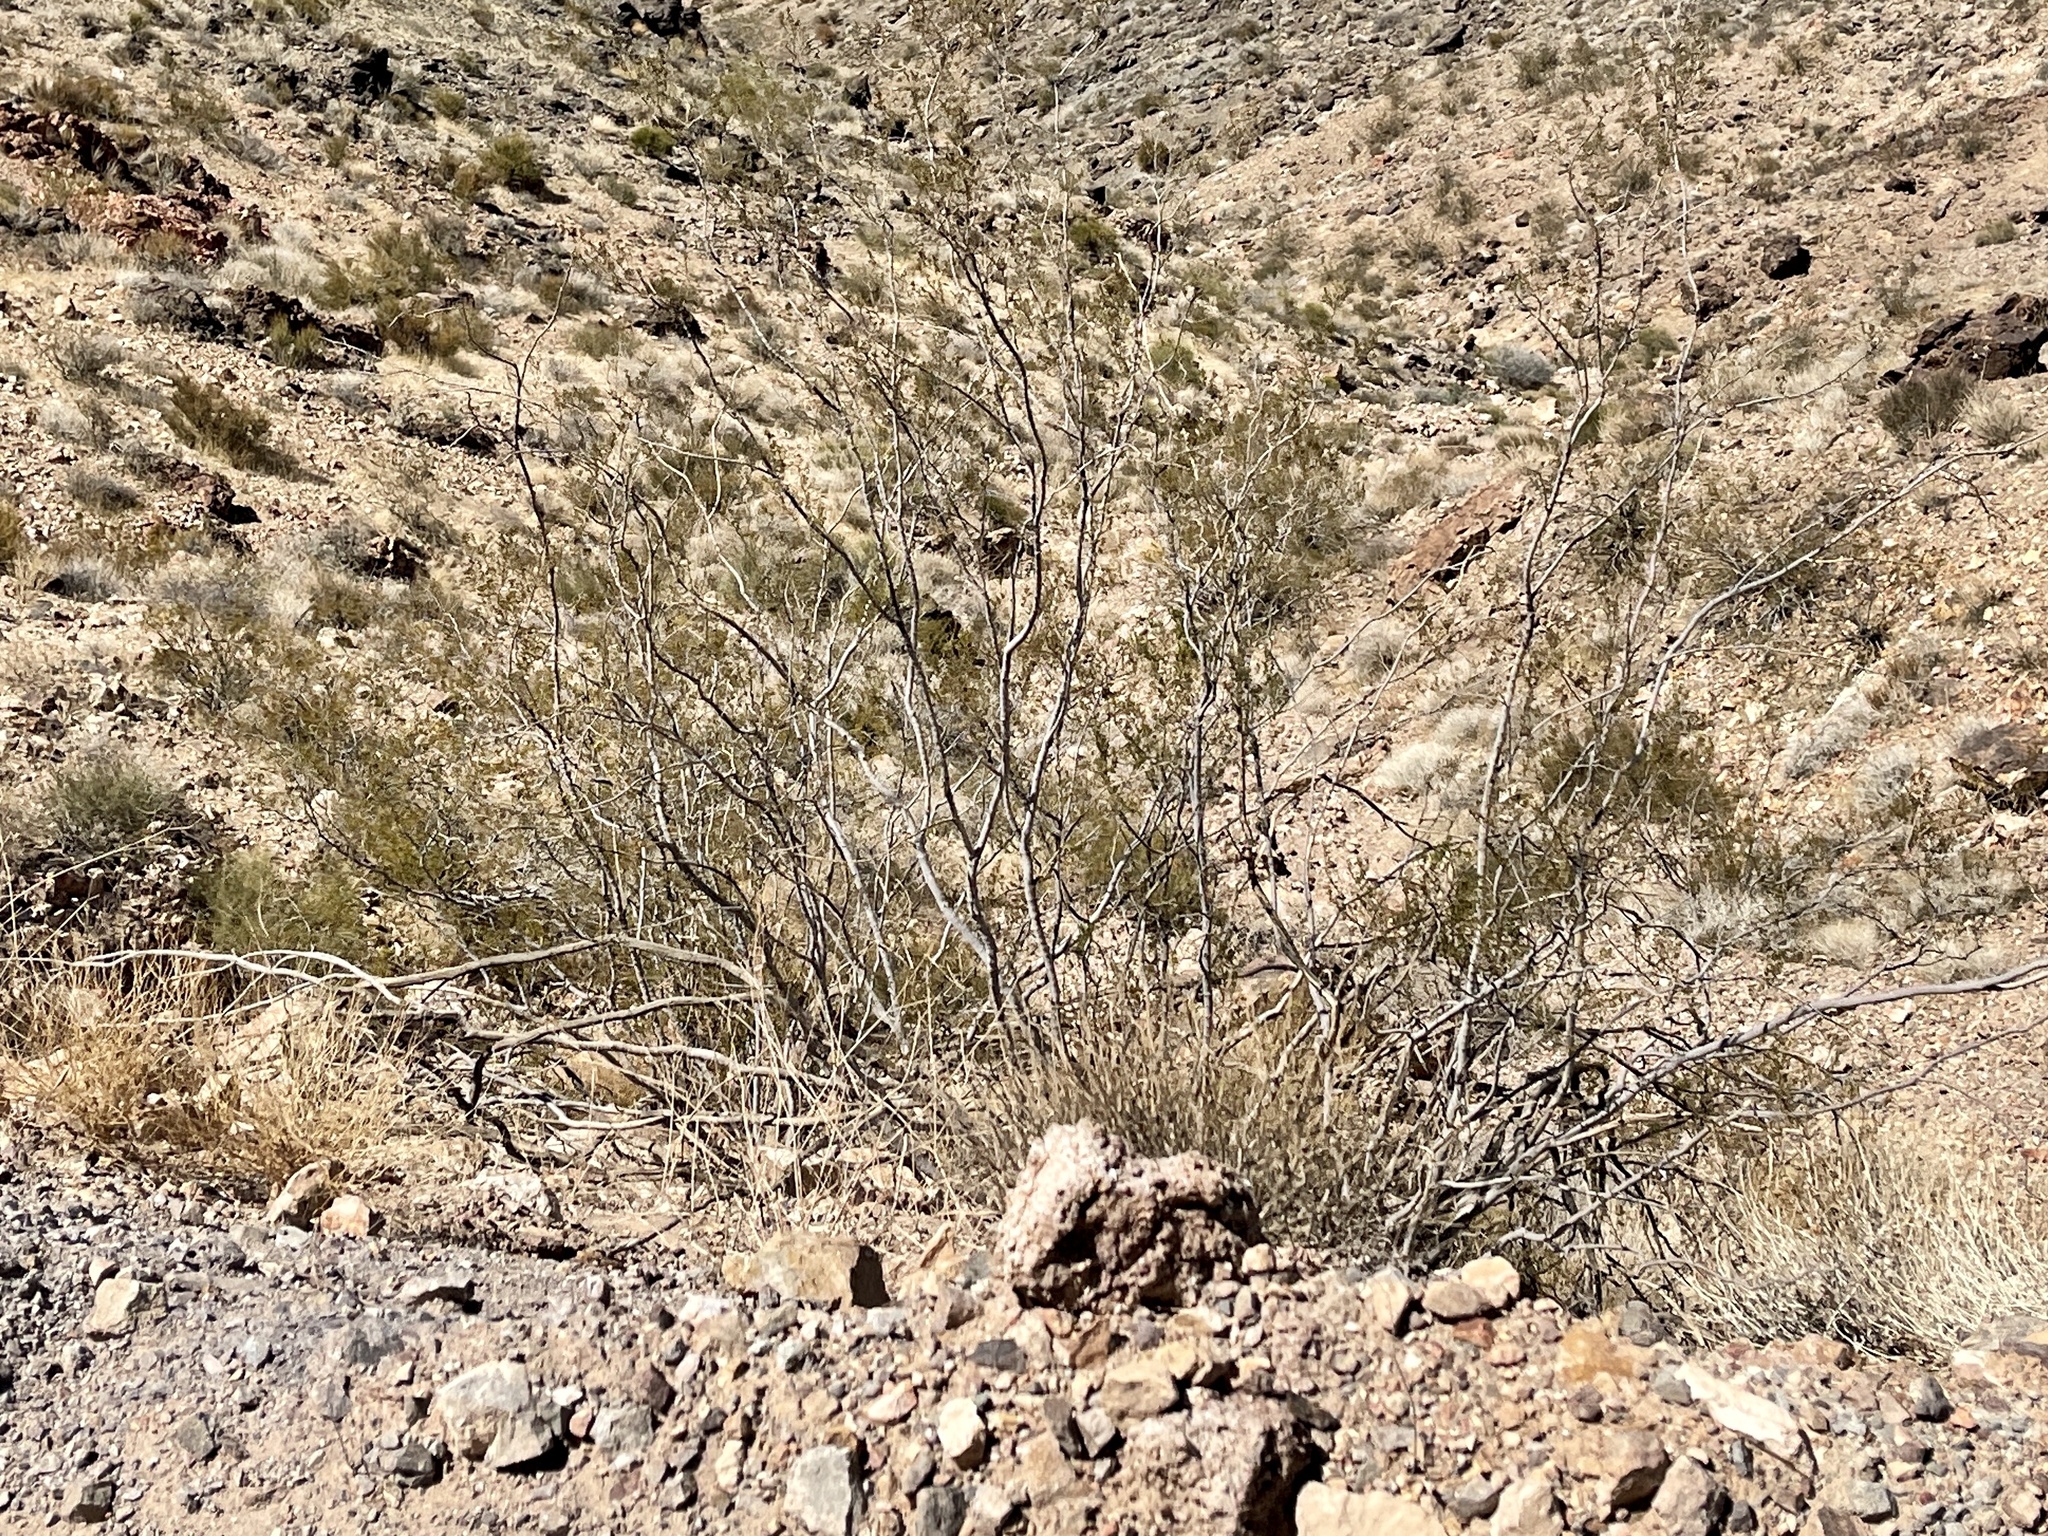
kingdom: Plantae
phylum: Tracheophyta
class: Magnoliopsida
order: Zygophyllales
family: Zygophyllaceae
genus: Larrea
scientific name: Larrea tridentata
